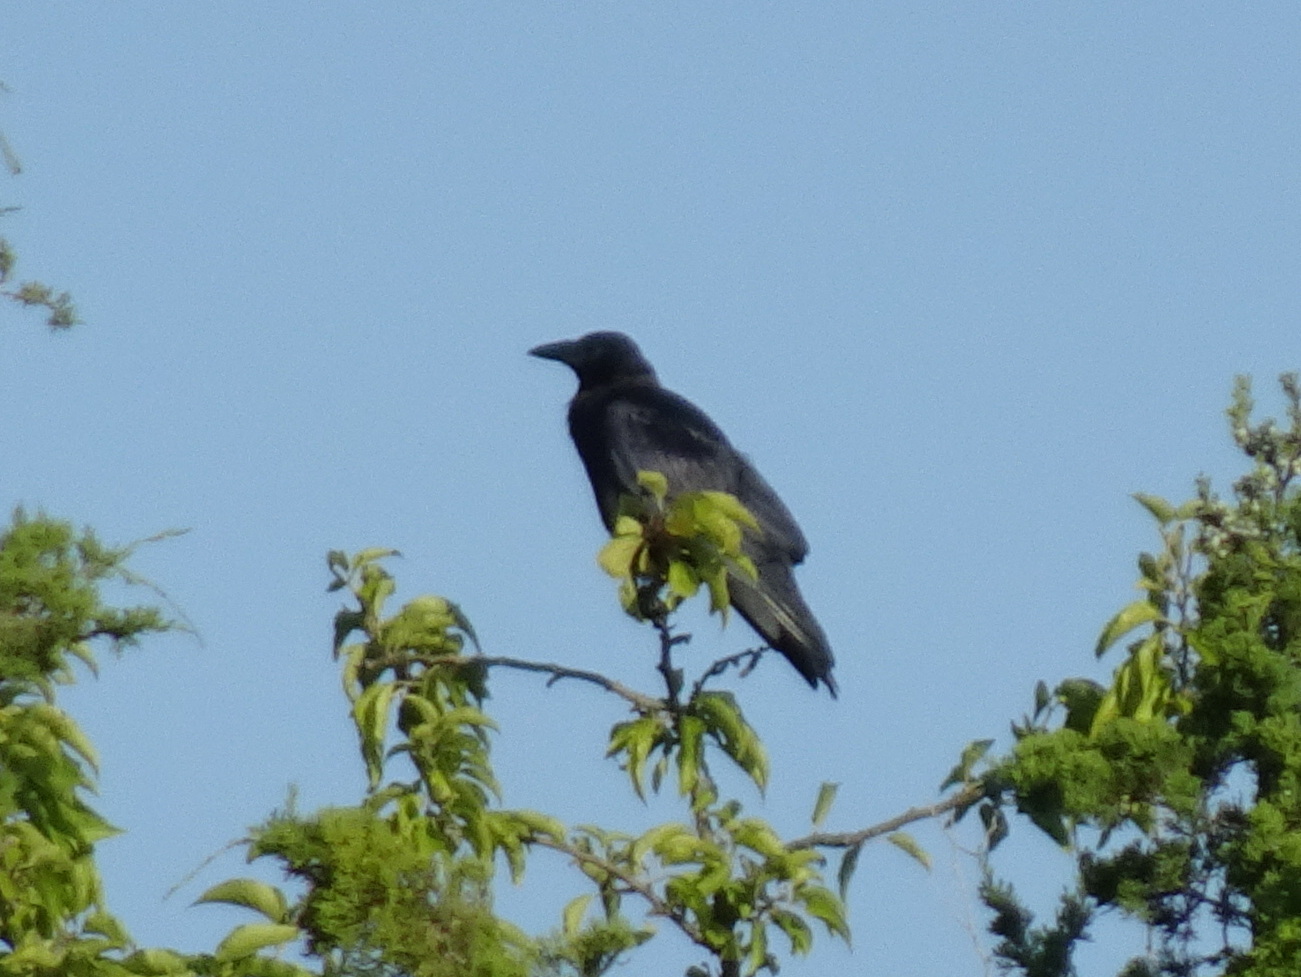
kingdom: Animalia
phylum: Chordata
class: Aves
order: Passeriformes
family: Corvidae
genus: Corvus
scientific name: Corvus brachyrhynchos
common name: American crow
